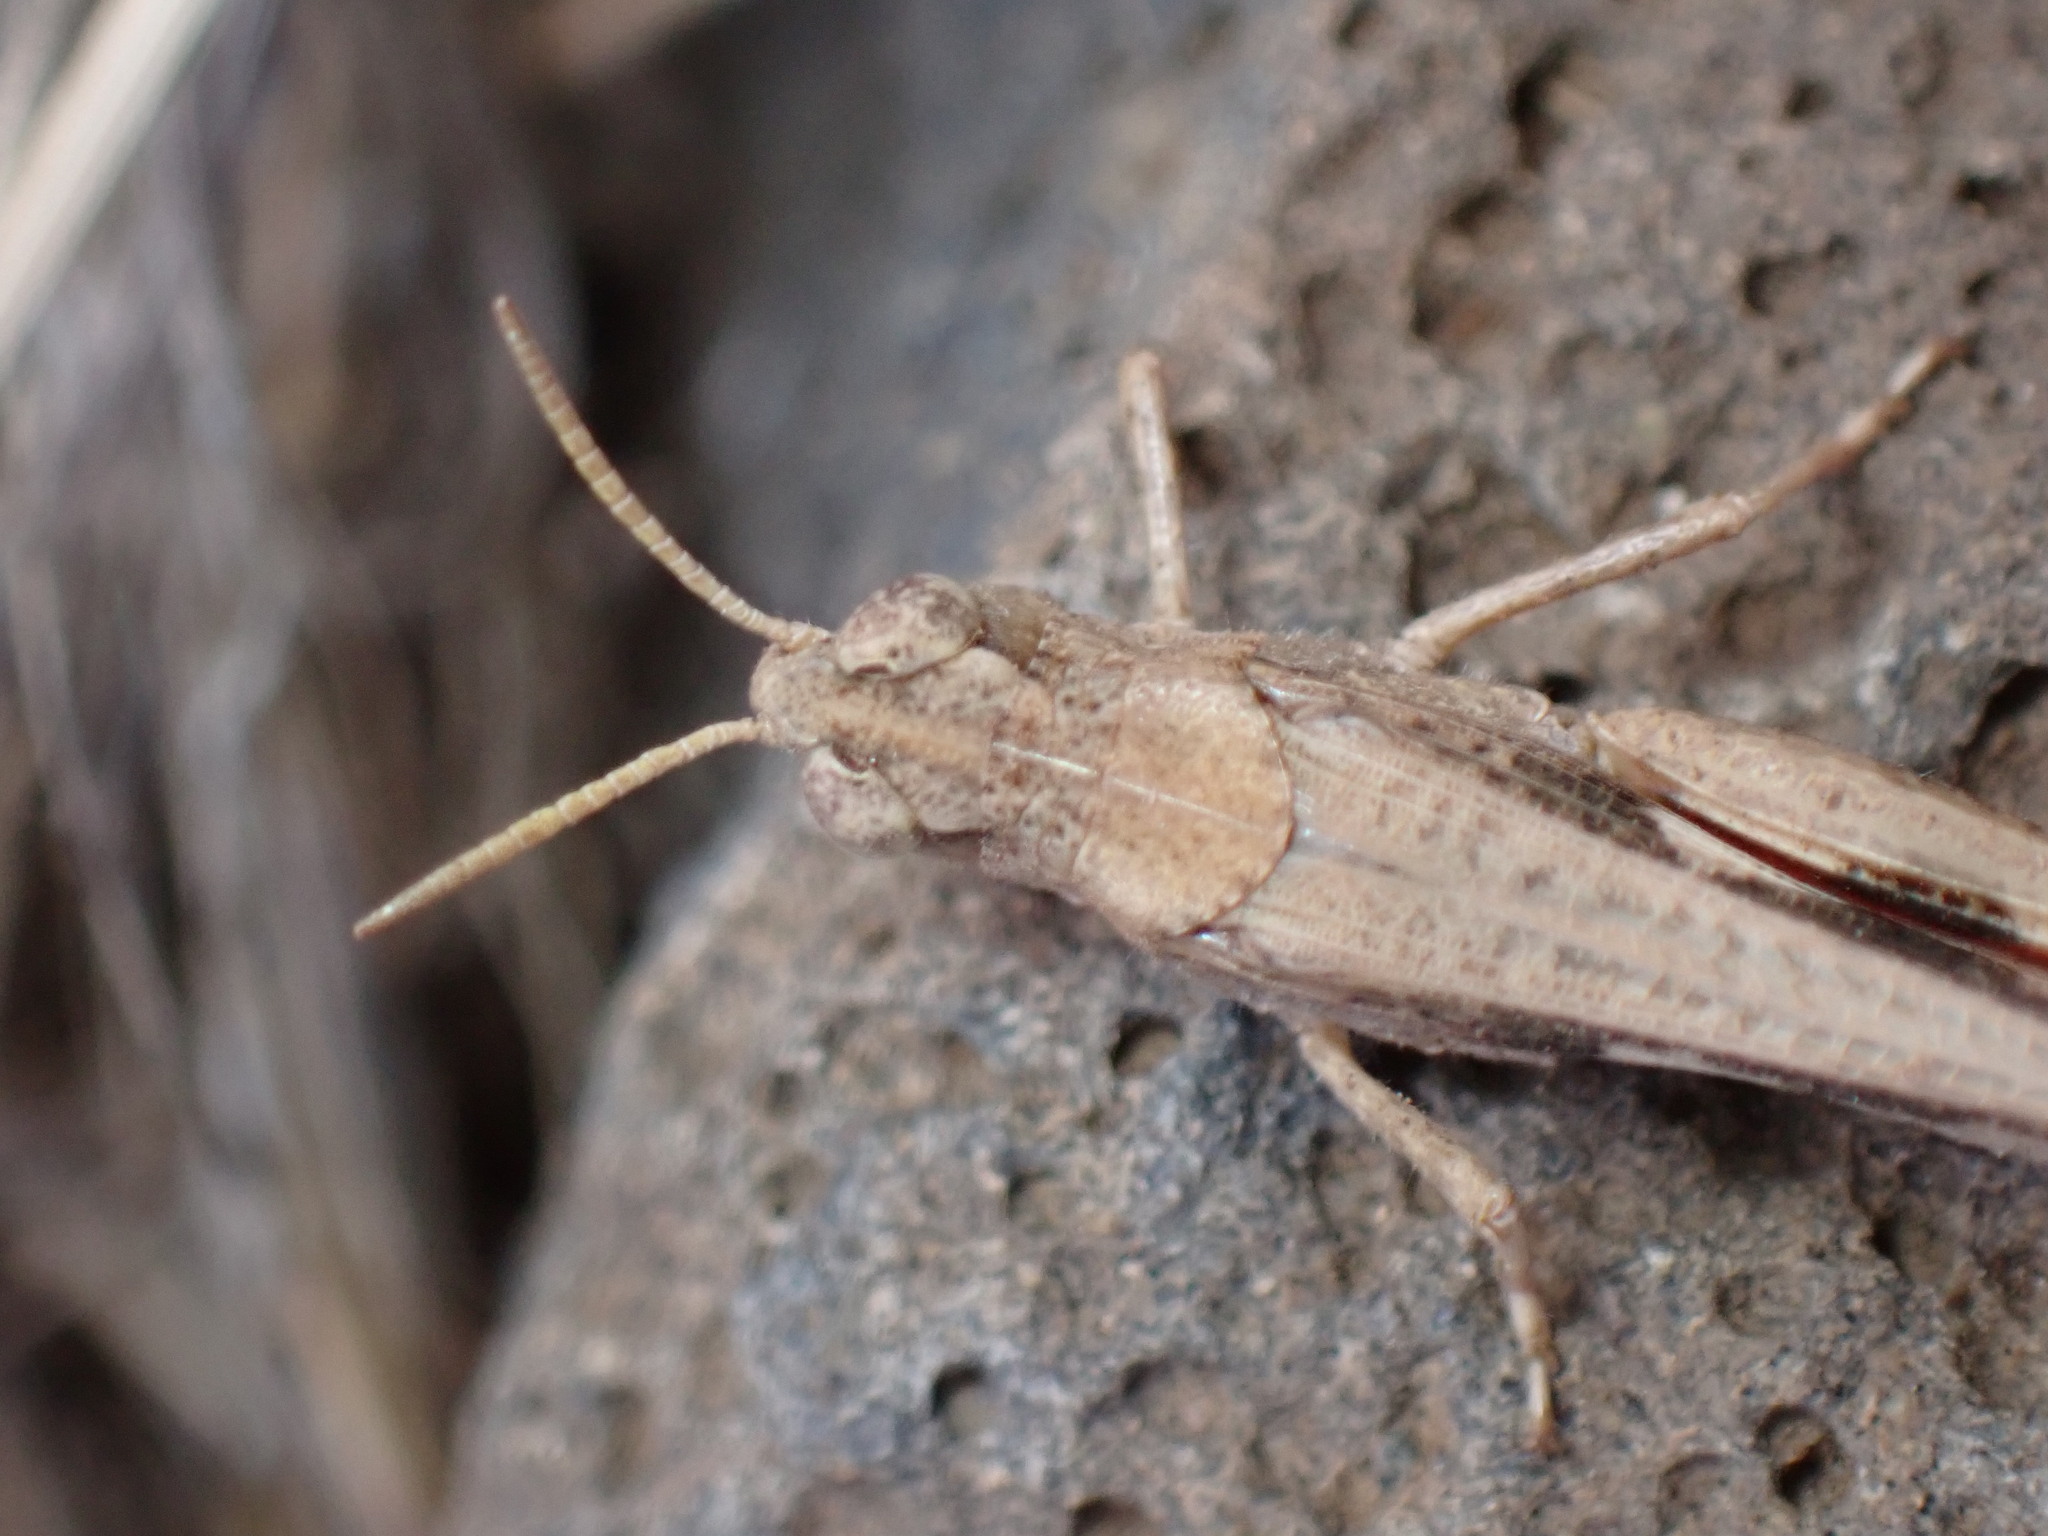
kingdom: Animalia
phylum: Arthropoda
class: Insecta
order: Orthoptera
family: Acrididae
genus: Aiolopus
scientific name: Aiolopus strepens
